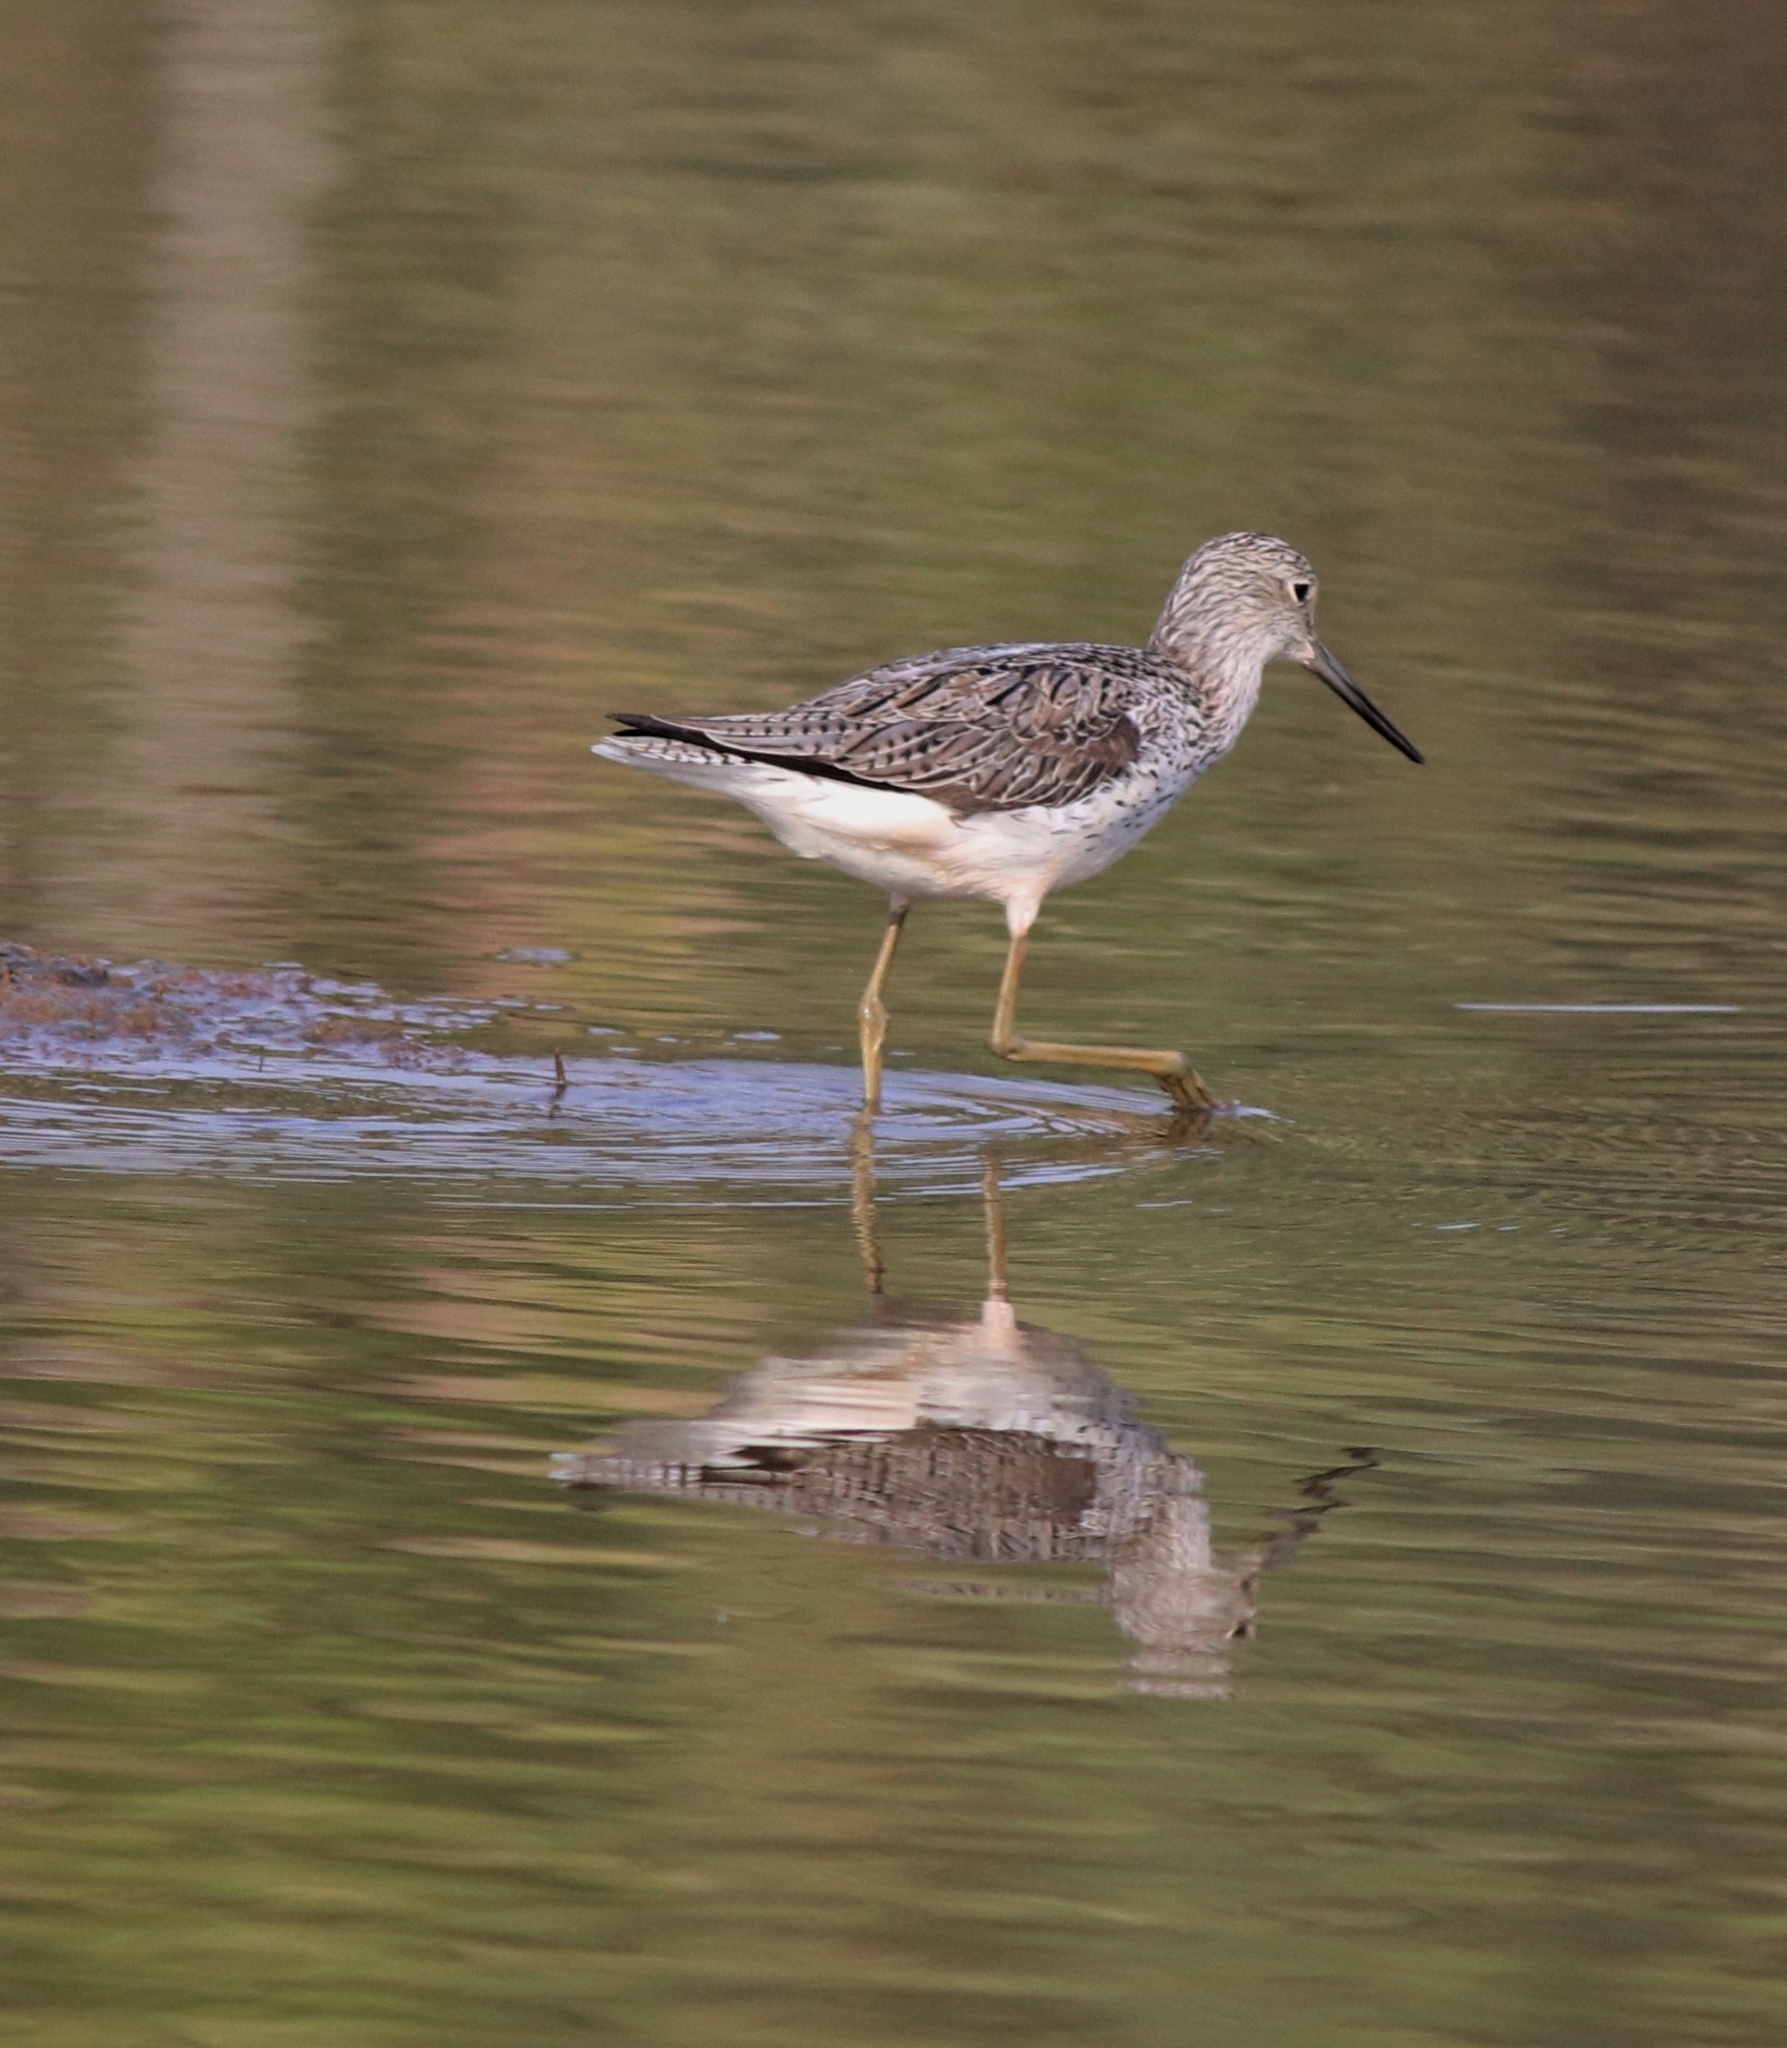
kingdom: Animalia
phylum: Chordata
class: Aves
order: Charadriiformes
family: Scolopacidae
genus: Tringa
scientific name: Tringa nebularia
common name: Common greenshank
